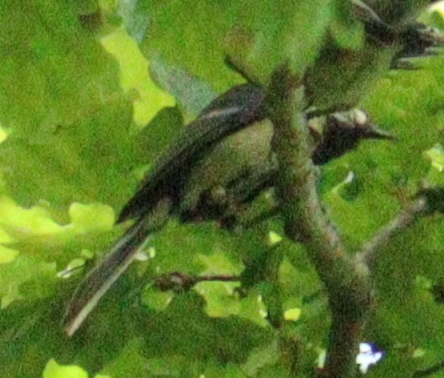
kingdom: Animalia
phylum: Chordata
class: Aves
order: Passeriformes
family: Paridae
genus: Parus
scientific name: Parus major
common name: Great tit
